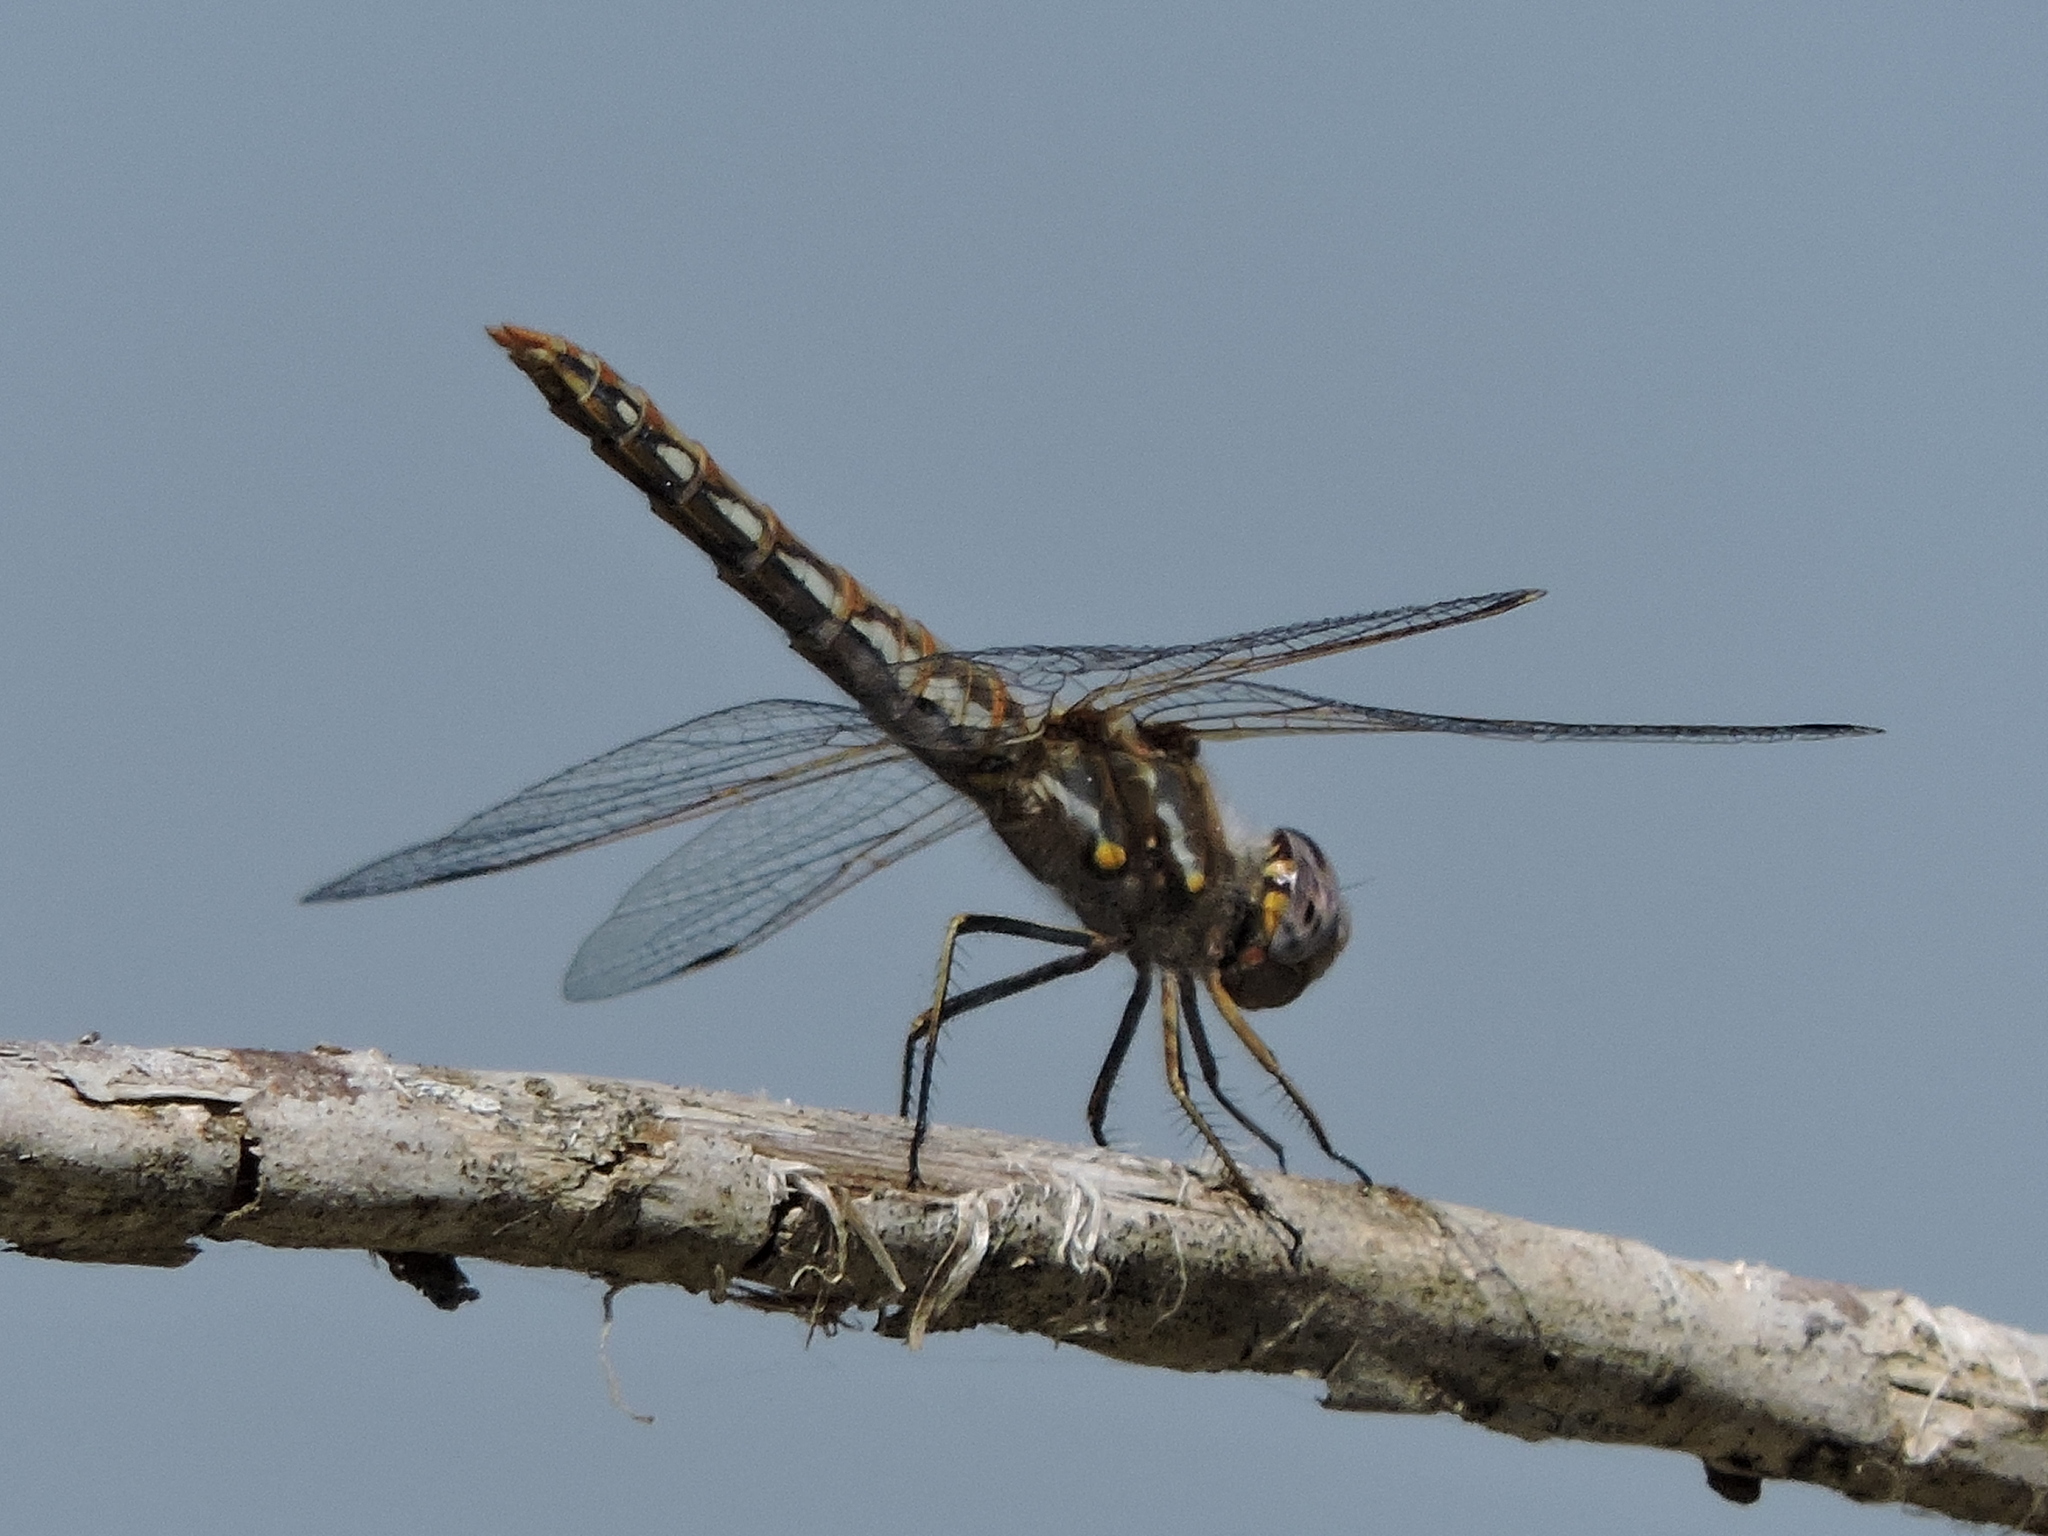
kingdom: Animalia
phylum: Arthropoda
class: Insecta
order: Odonata
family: Libellulidae
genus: Sympetrum
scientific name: Sympetrum corruptum
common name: Variegated meadowhawk
